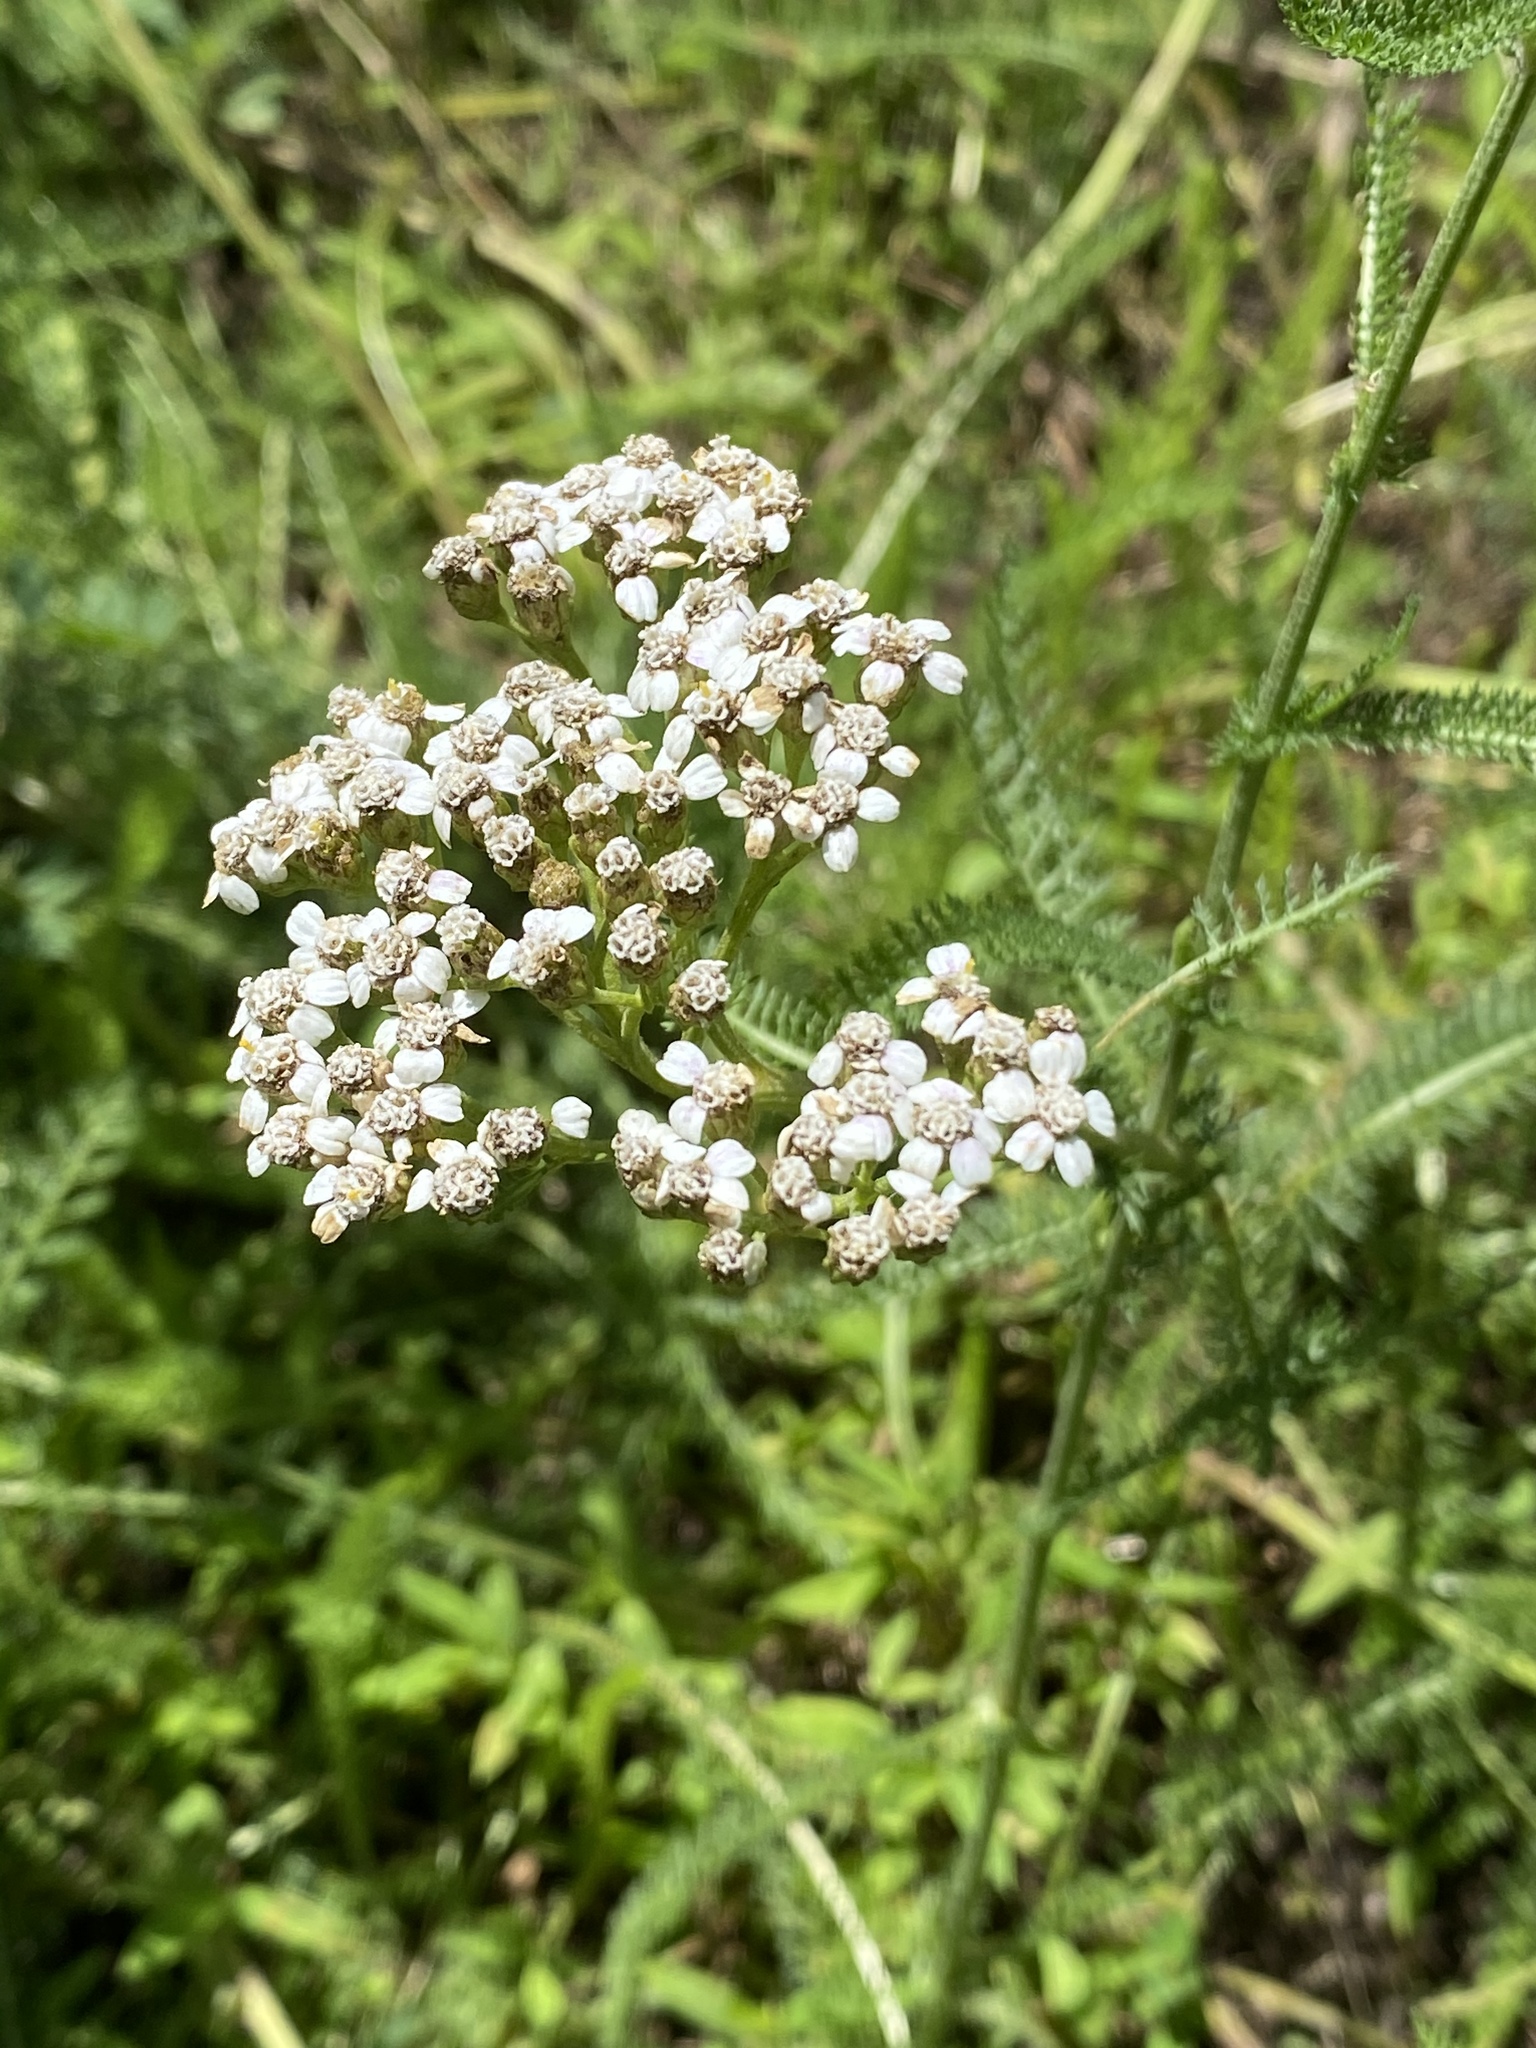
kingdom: Plantae
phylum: Tracheophyta
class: Magnoliopsida
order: Asterales
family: Asteraceae
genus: Achillea
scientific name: Achillea millefolium
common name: Yarrow
